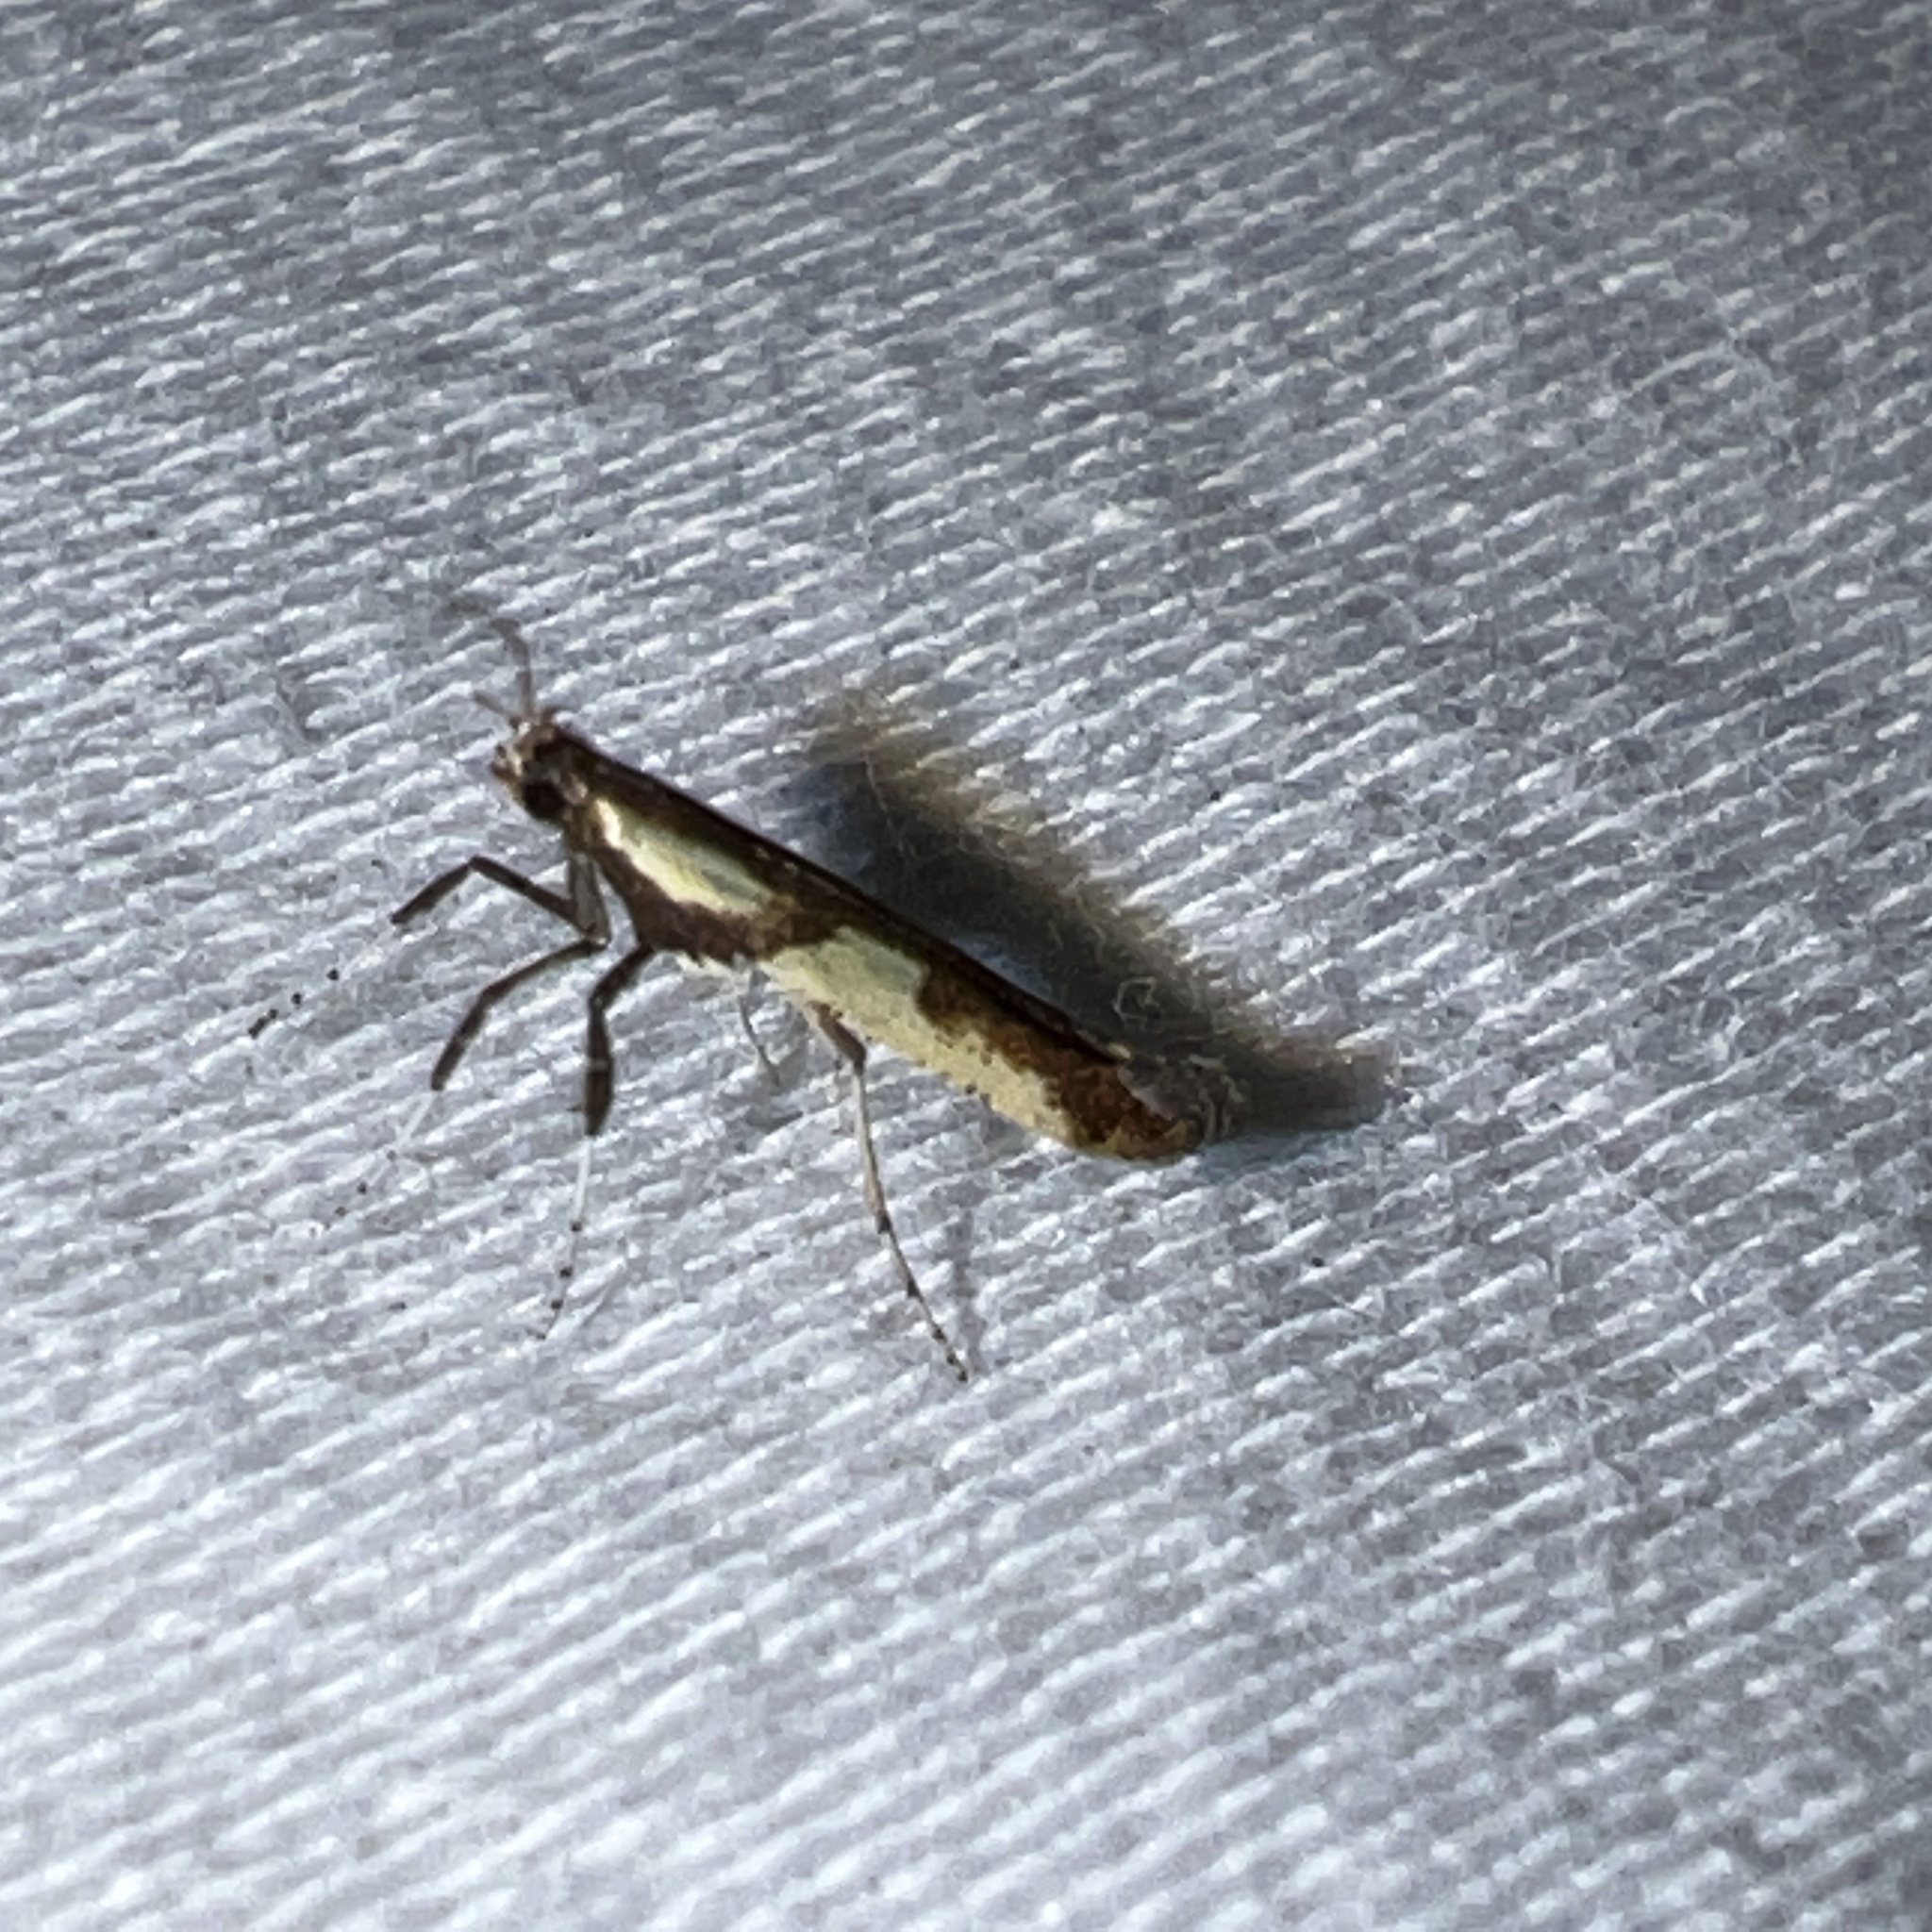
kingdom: Animalia
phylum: Arthropoda
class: Insecta
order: Lepidoptera
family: Gracillariidae
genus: Caloptilia
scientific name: Caloptilia blandella
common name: Walnut caloptilia moth
